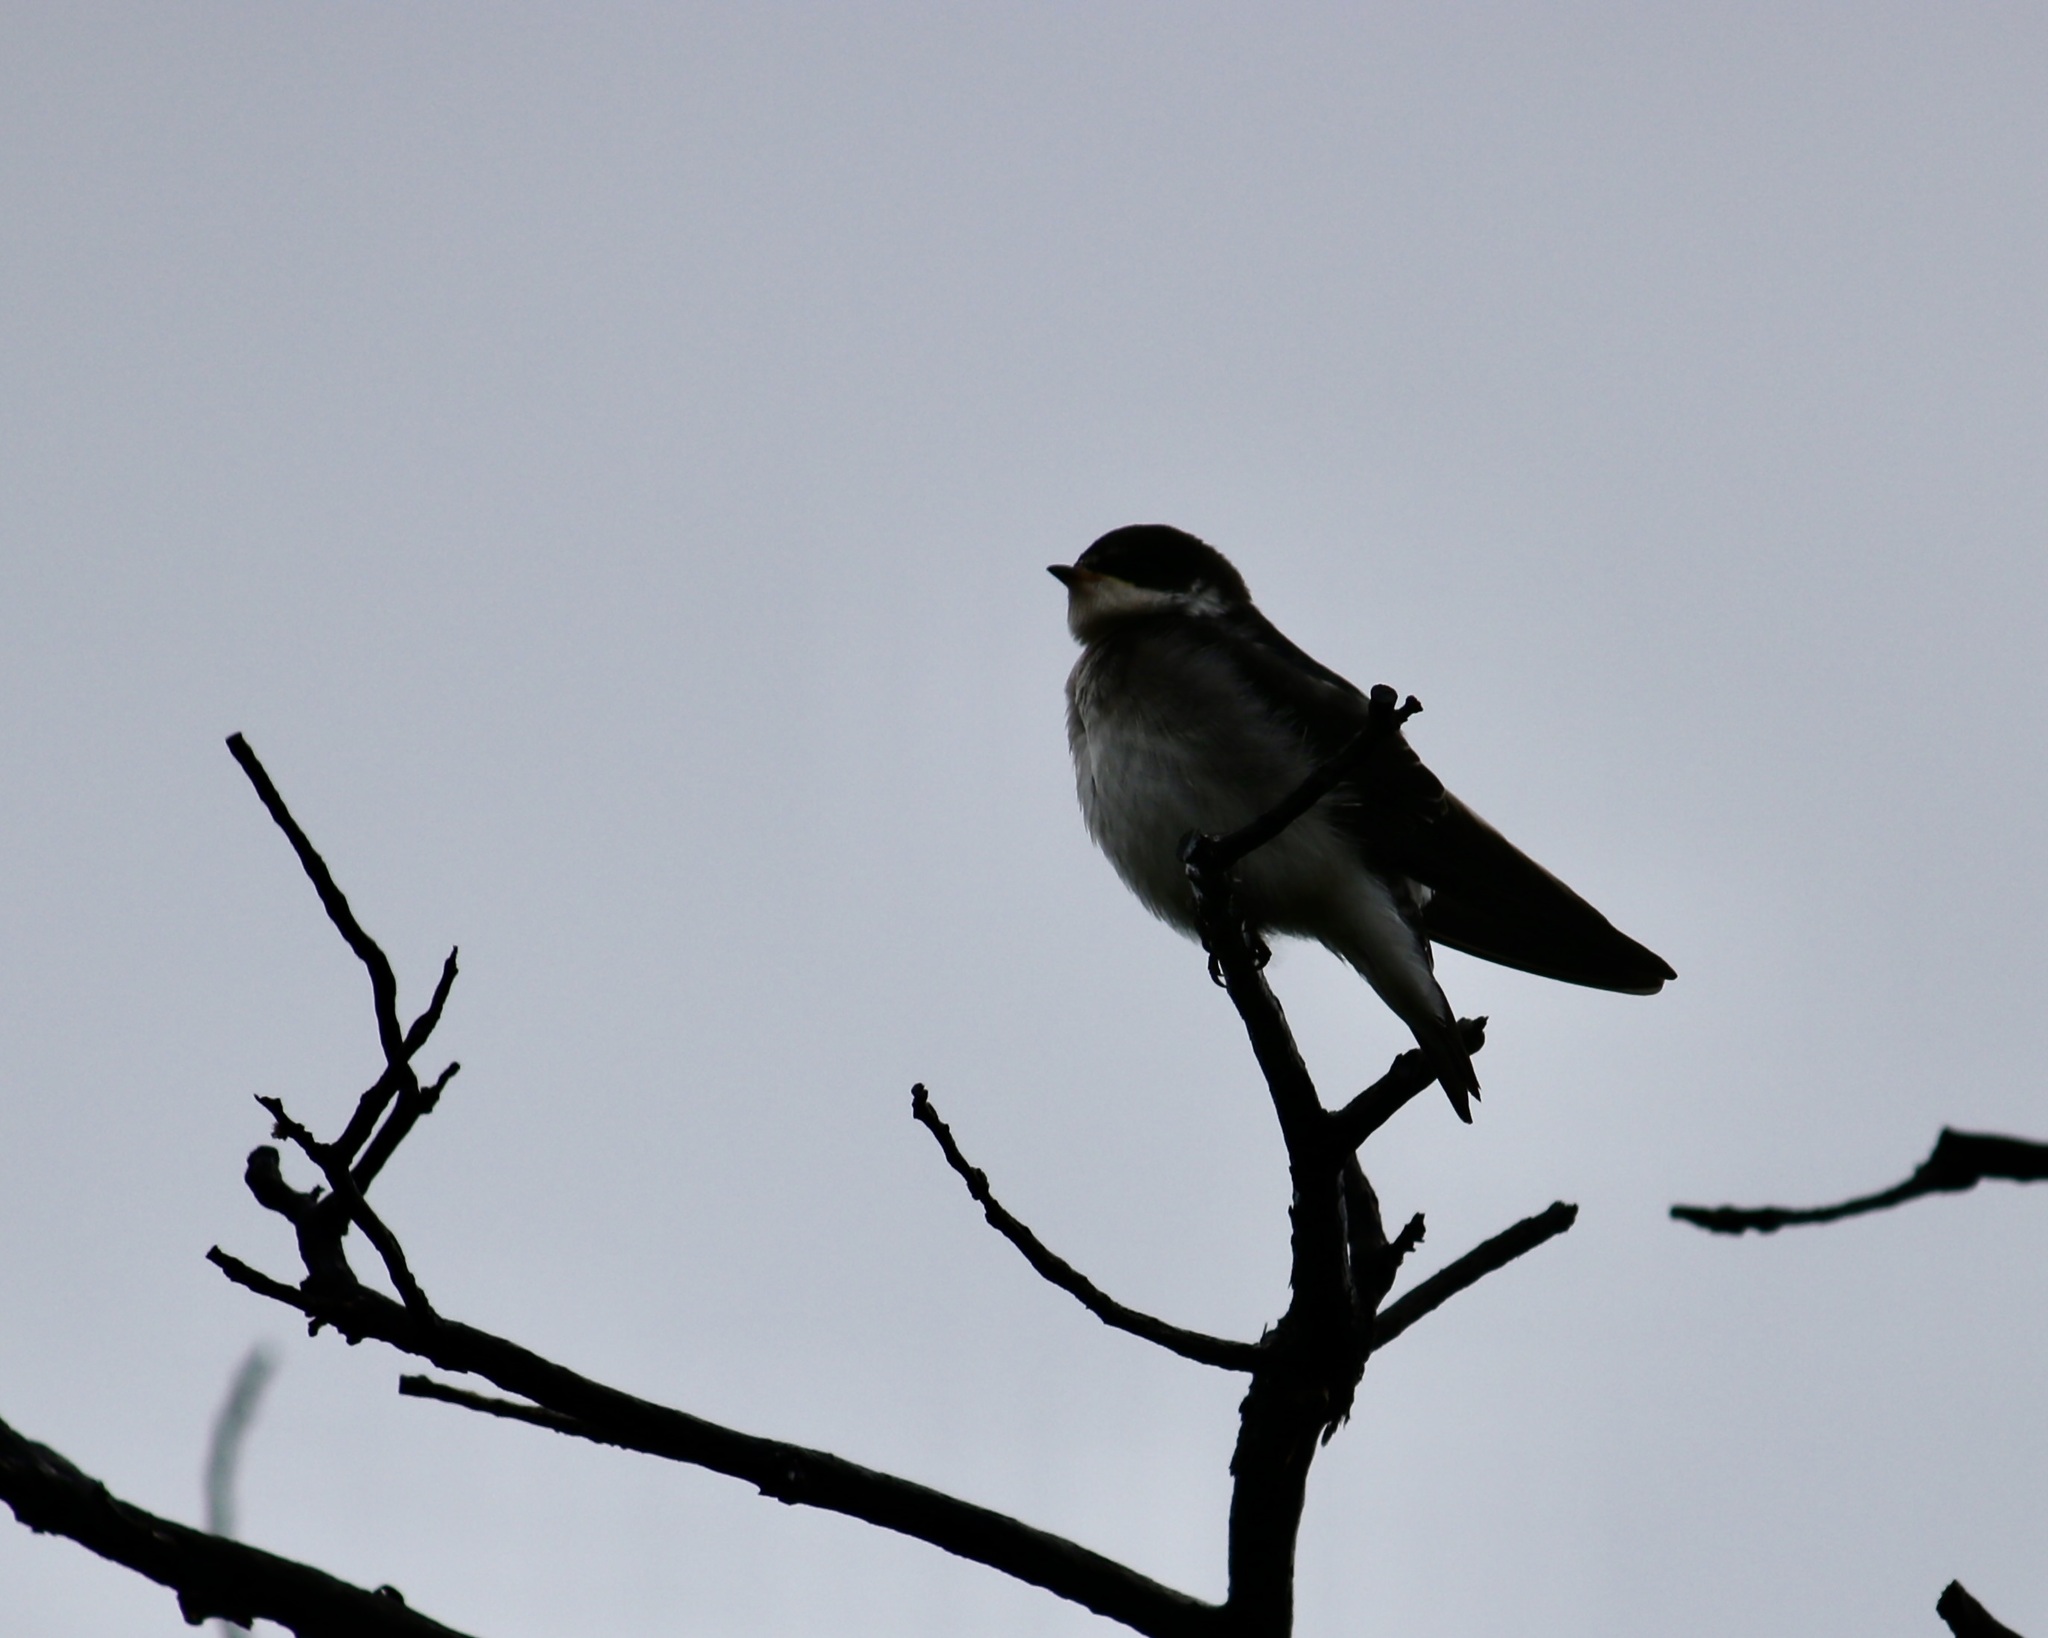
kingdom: Animalia
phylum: Chordata
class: Aves
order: Passeriformes
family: Hirundinidae
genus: Tachycineta
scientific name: Tachycineta leucopyga
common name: Chilean swallow
